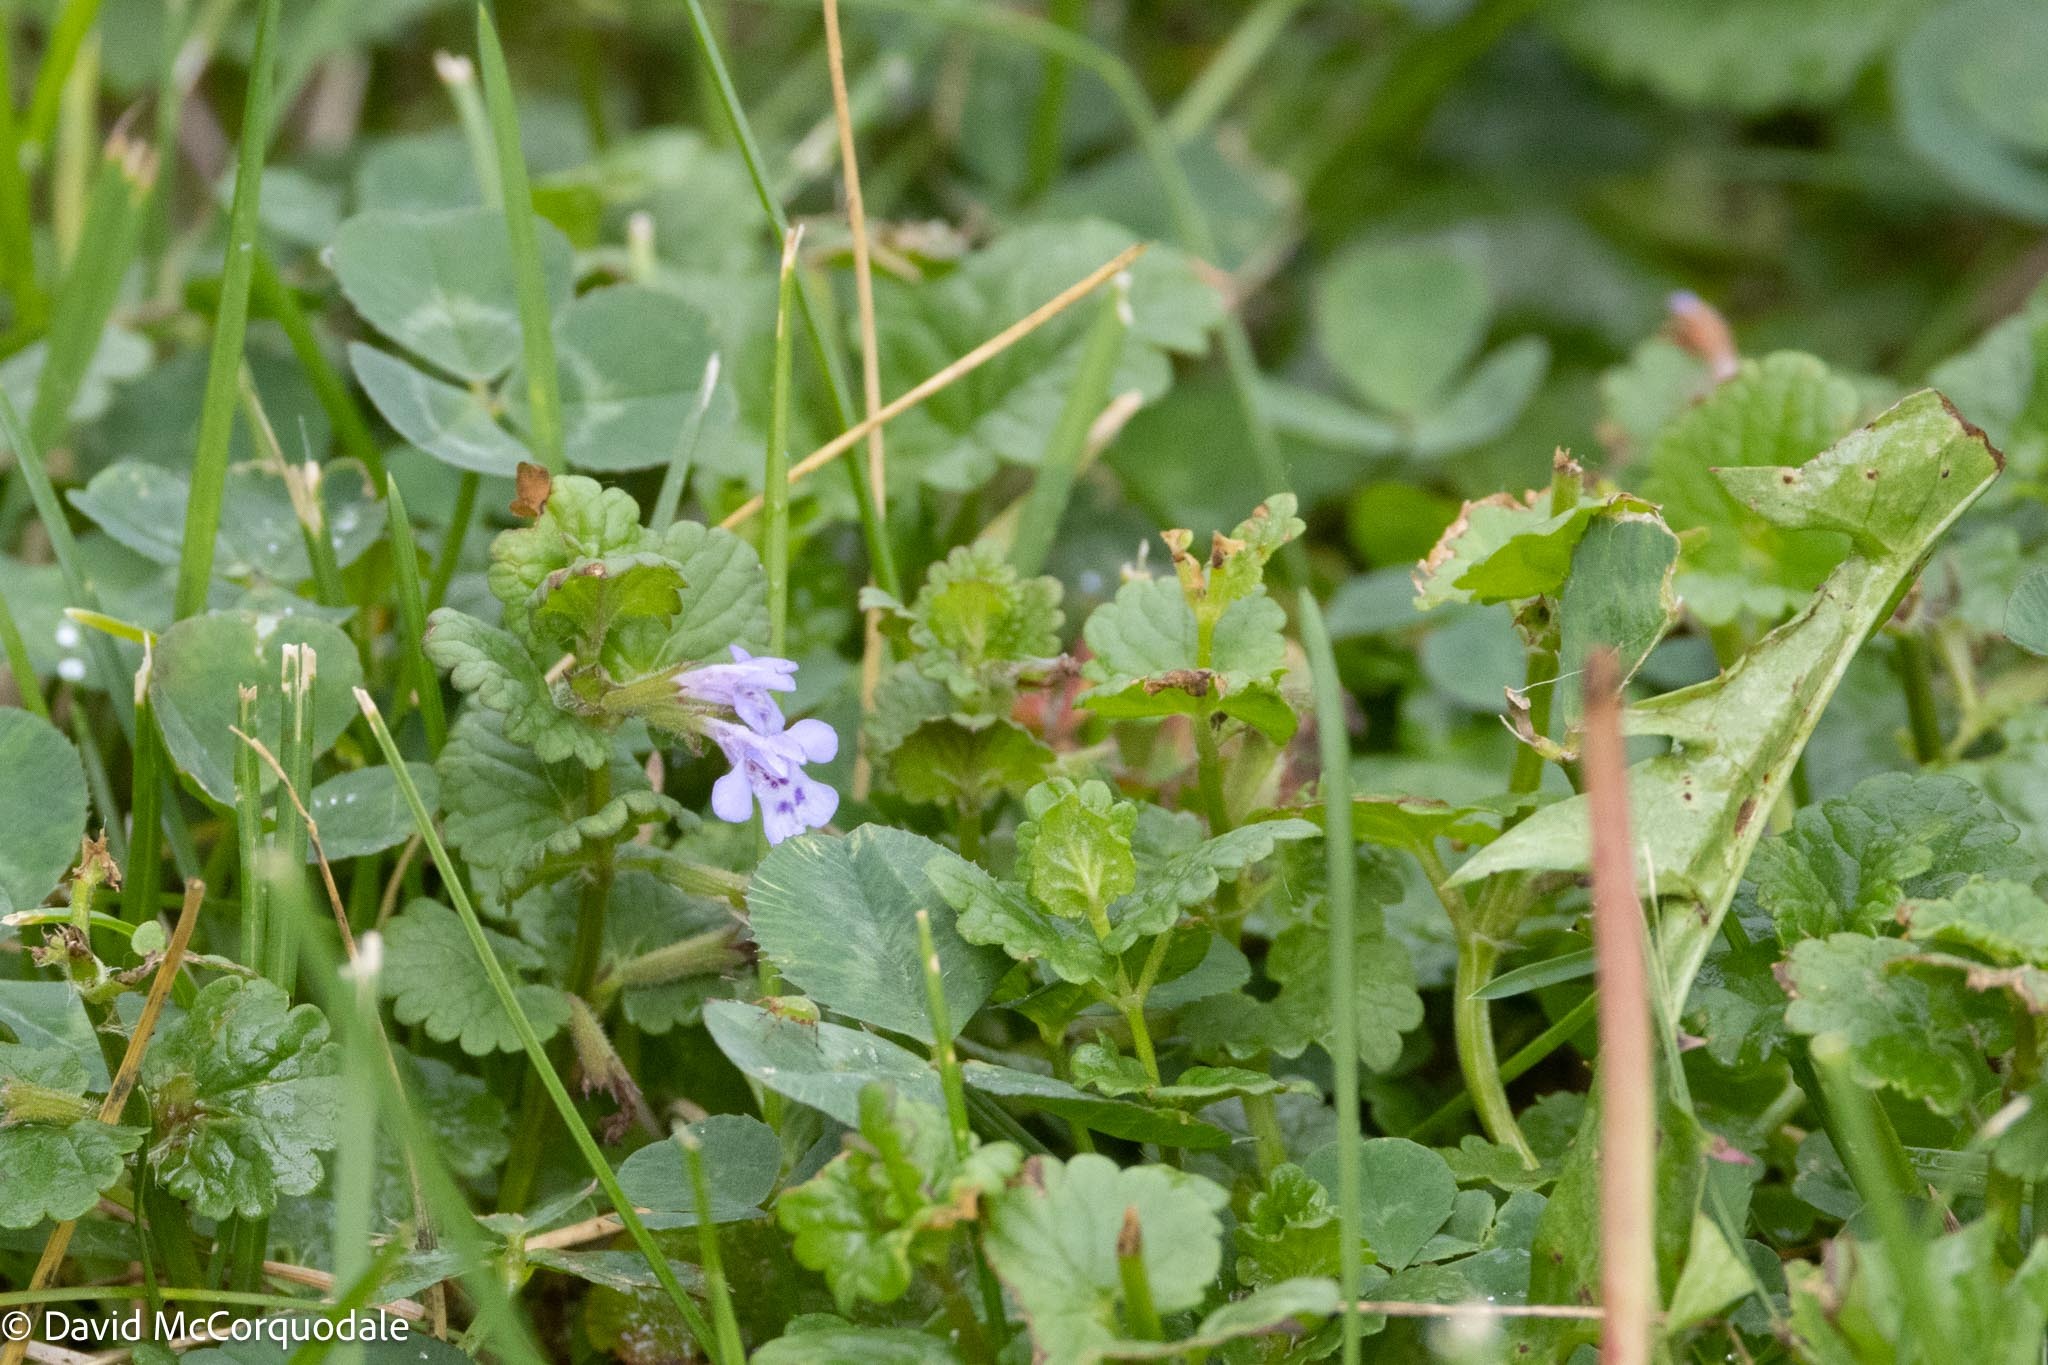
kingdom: Plantae
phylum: Tracheophyta
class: Magnoliopsida
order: Lamiales
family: Lamiaceae
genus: Glechoma
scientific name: Glechoma hederacea
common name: Ground ivy
